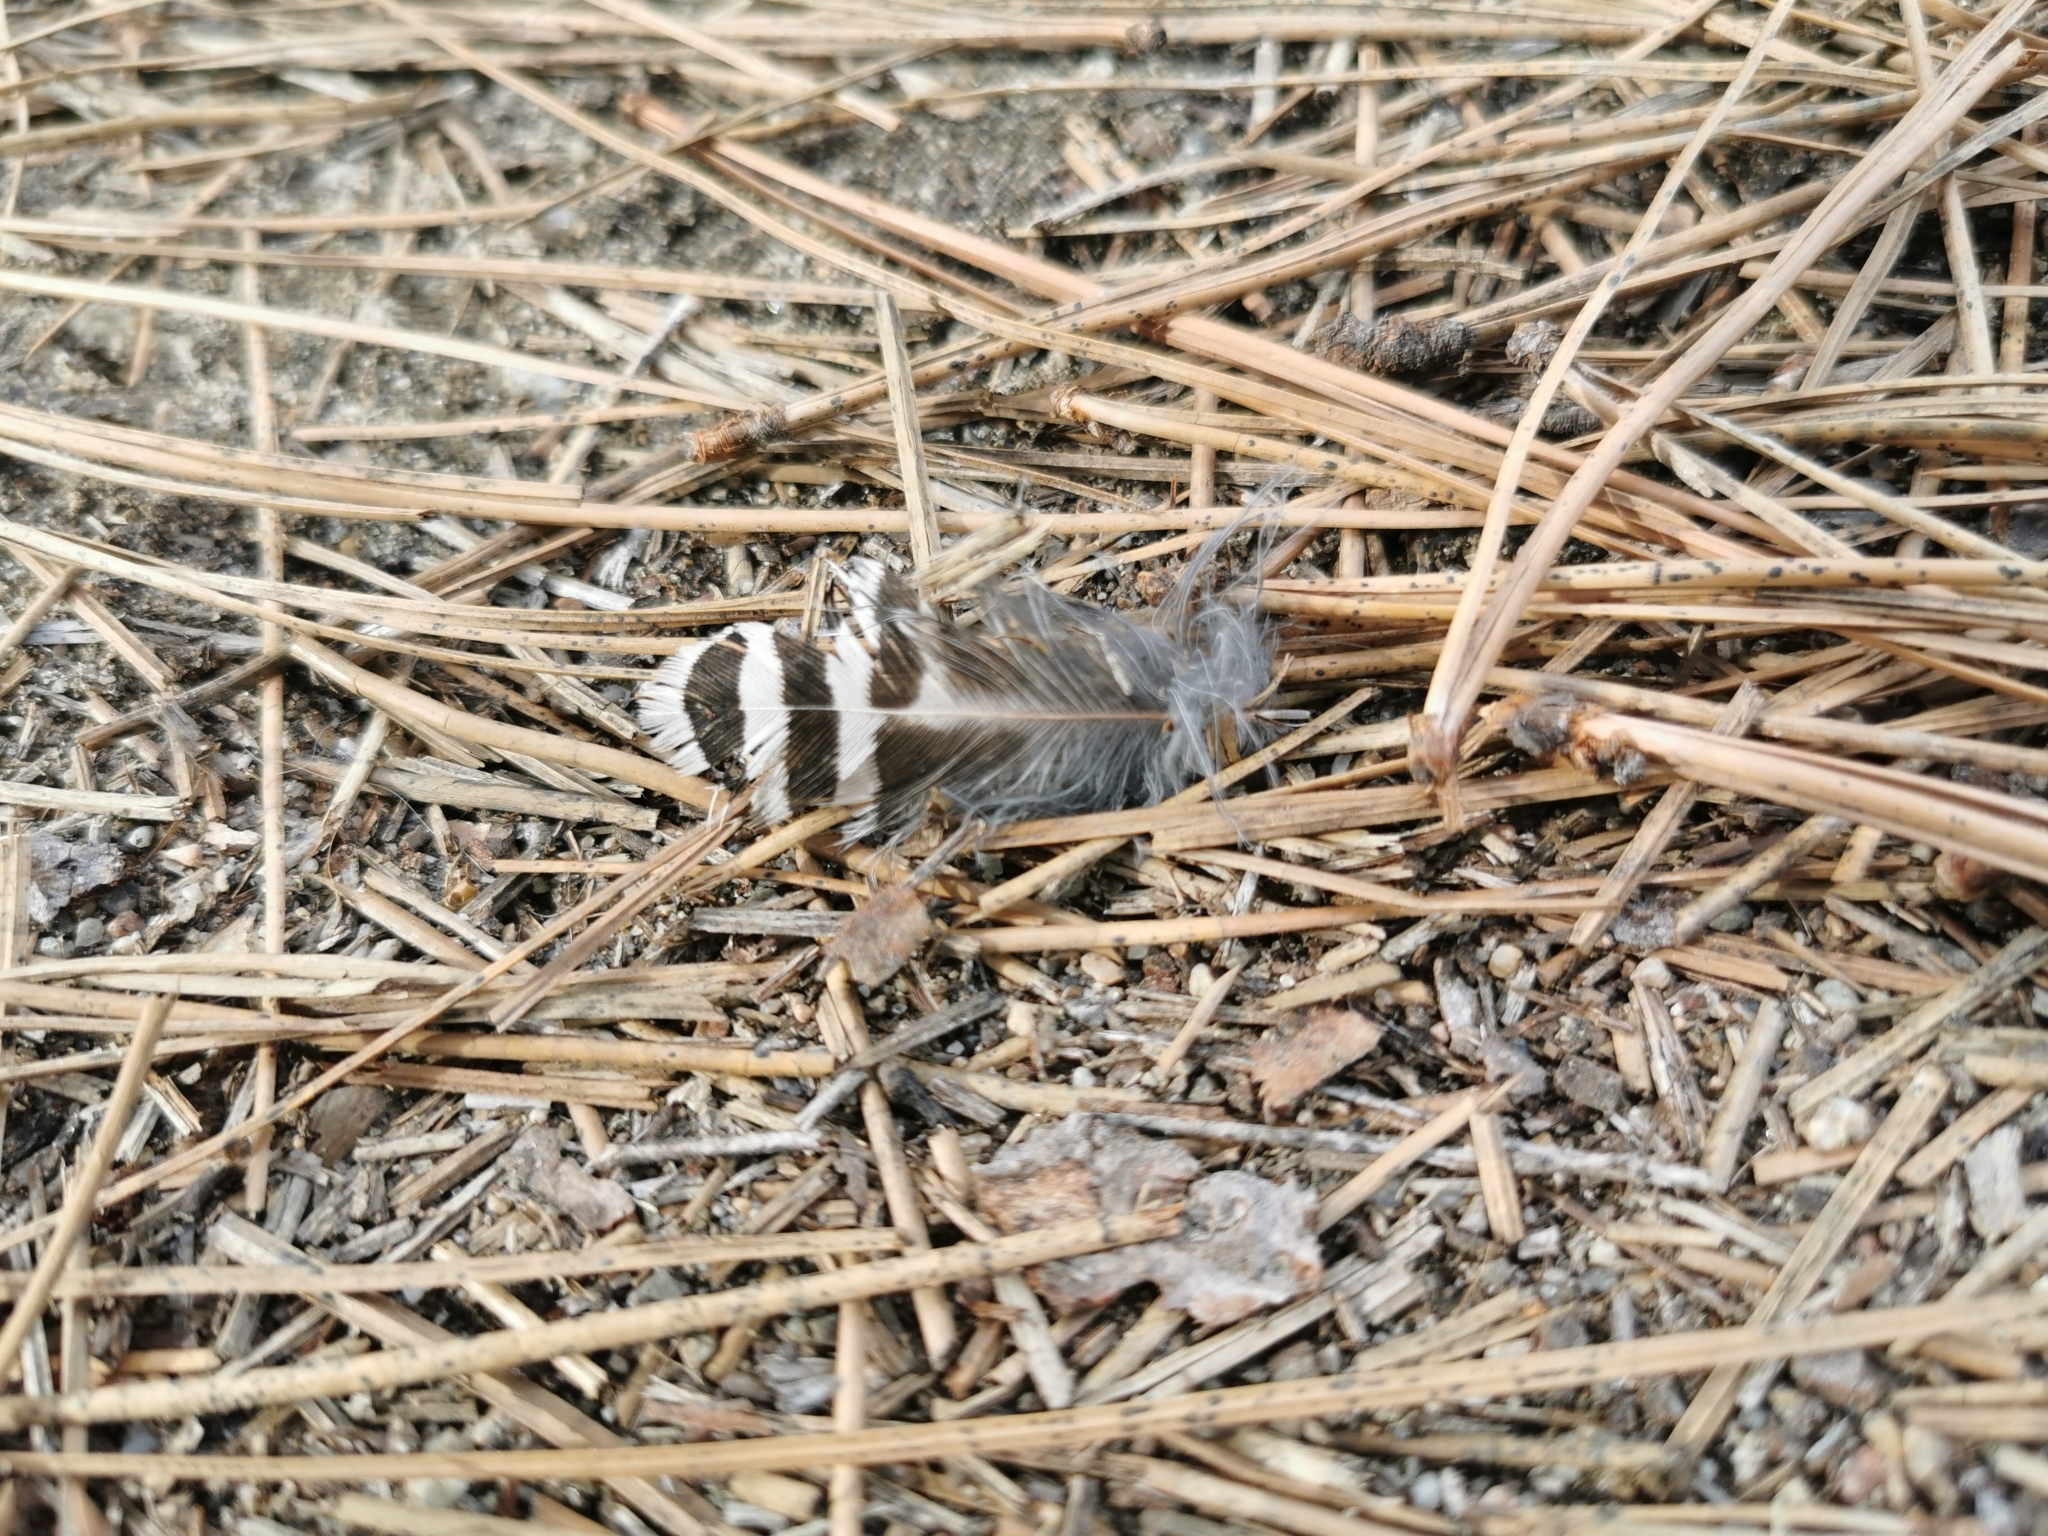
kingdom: Animalia
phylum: Chordata
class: Aves
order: Piciformes
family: Picidae
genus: Colaptes
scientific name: Colaptes auratus
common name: Northern flicker
